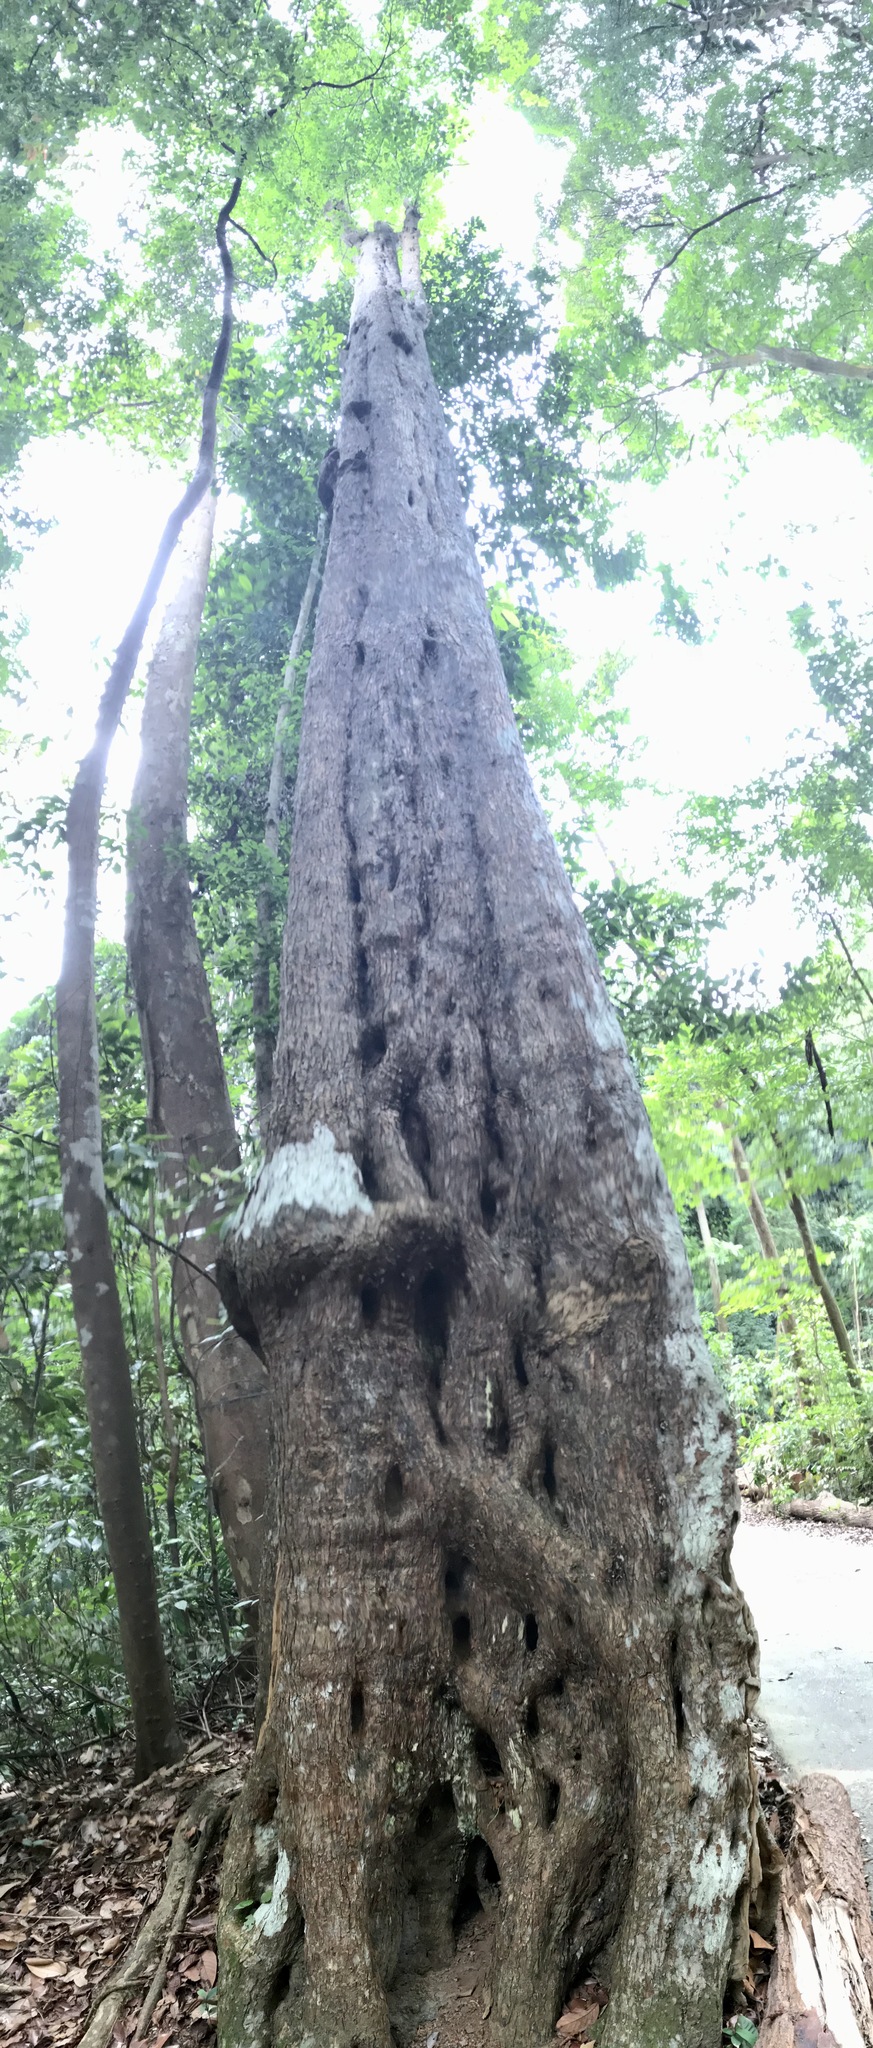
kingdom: Plantae
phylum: Tracheophyta
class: Magnoliopsida
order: Gentianales
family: Rubiaceae
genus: Adina
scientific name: Adina eurhyncha
